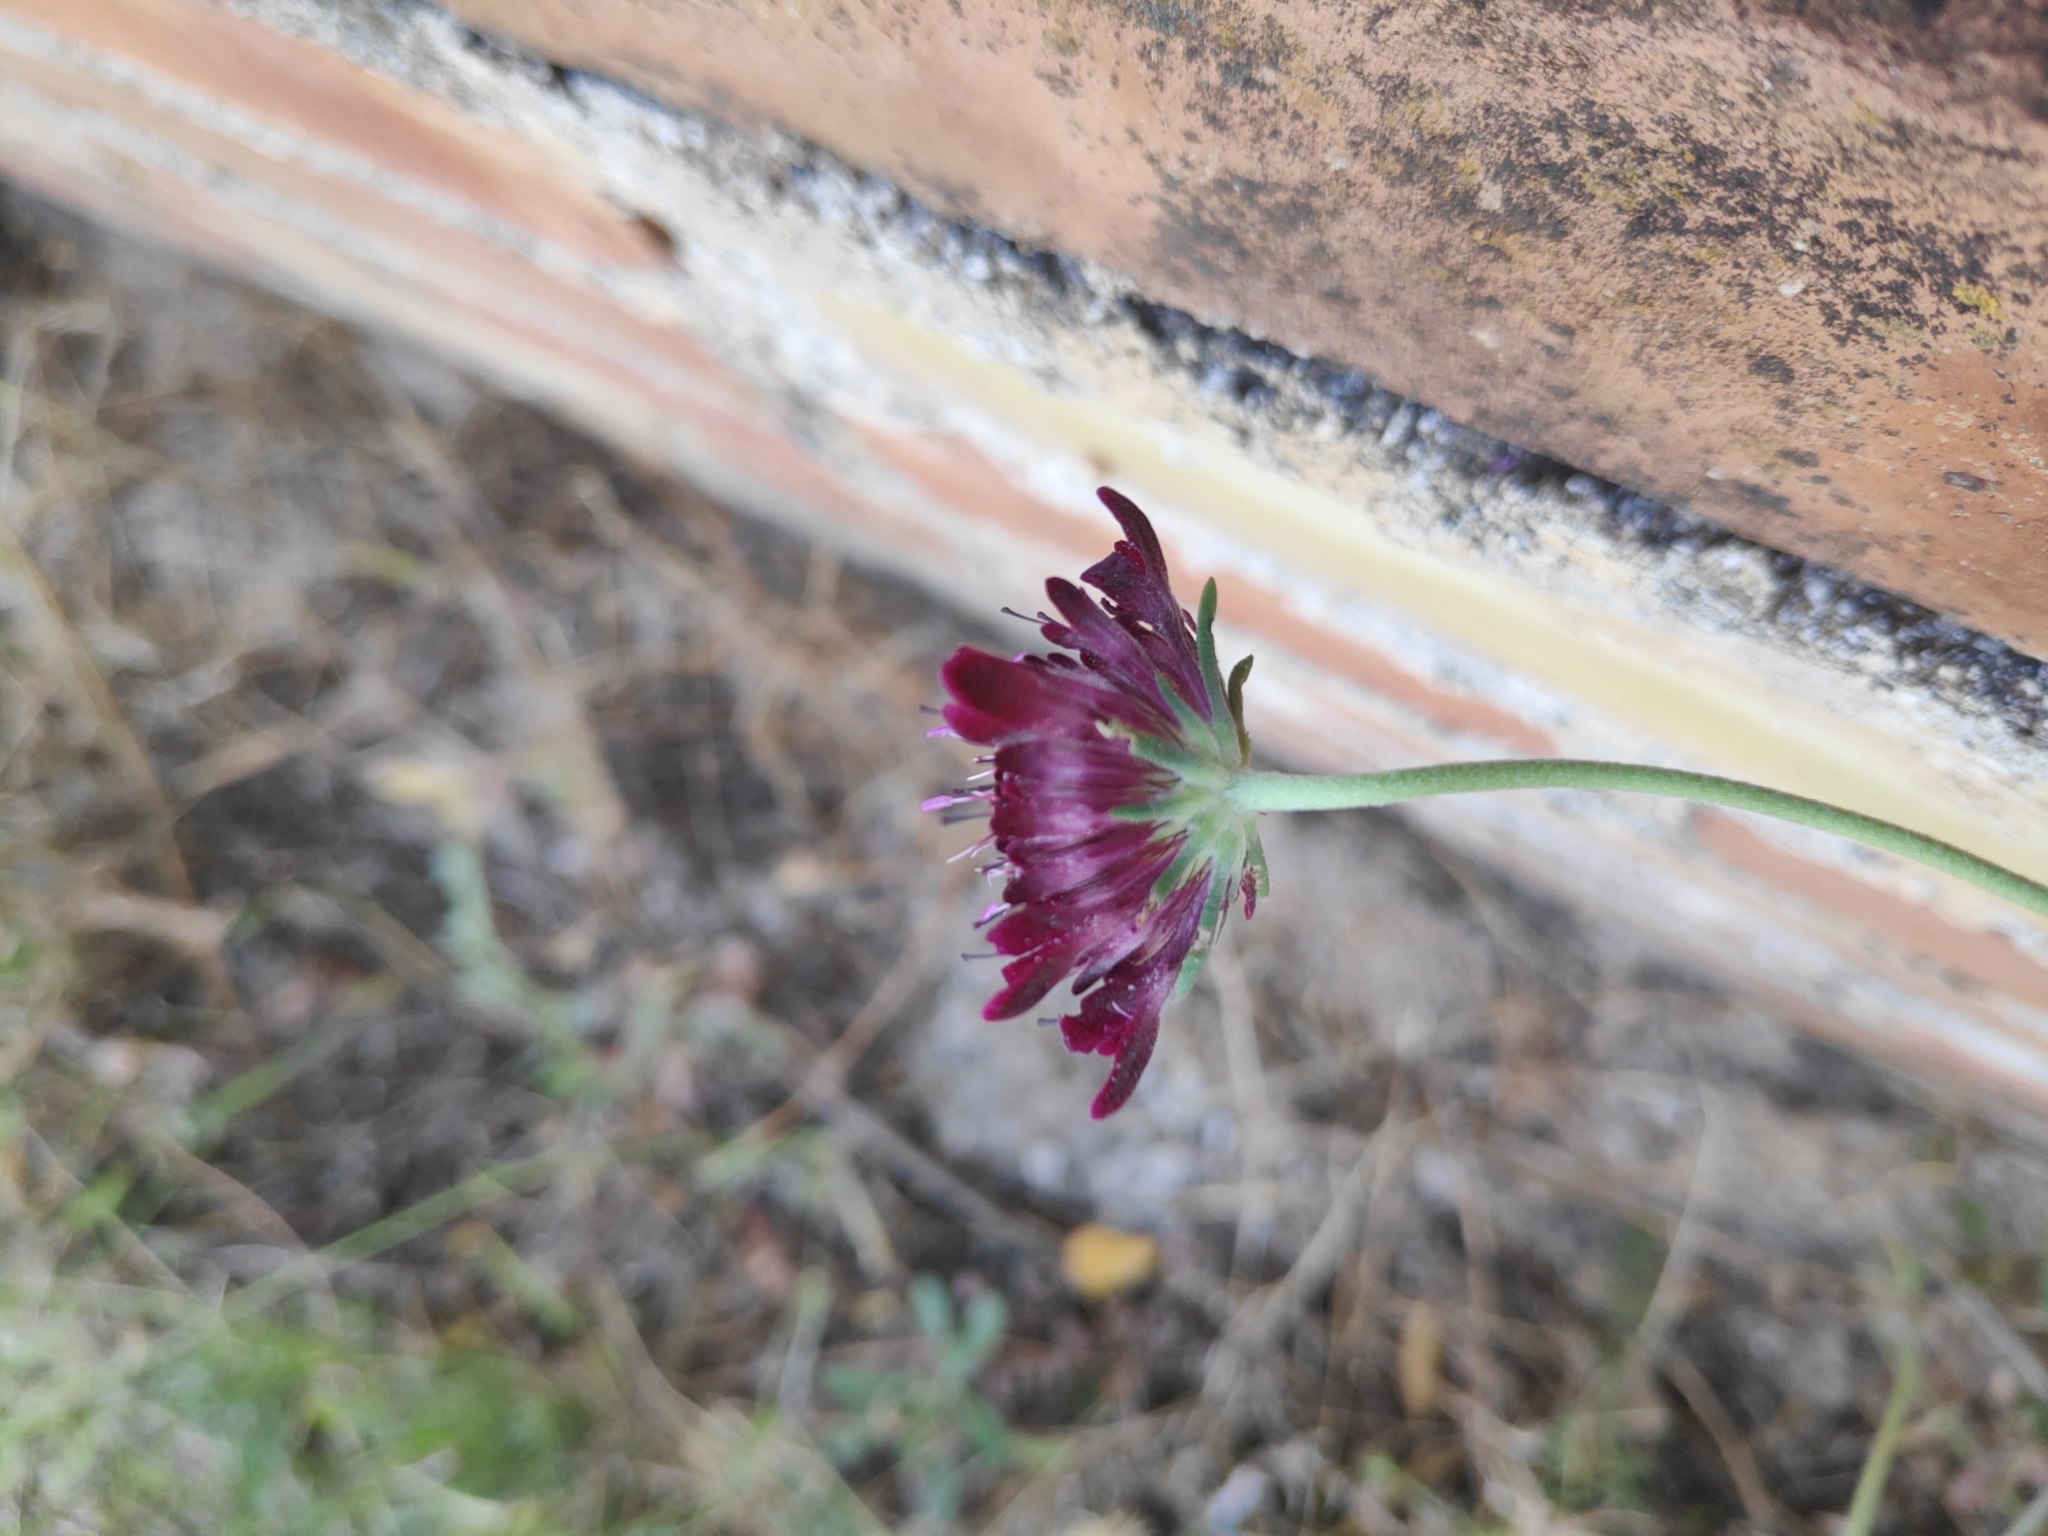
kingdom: Plantae
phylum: Tracheophyta
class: Magnoliopsida
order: Dipsacales
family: Caprifoliaceae
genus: Sixalix
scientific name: Sixalix atropurpurea
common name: Sweet scabious
